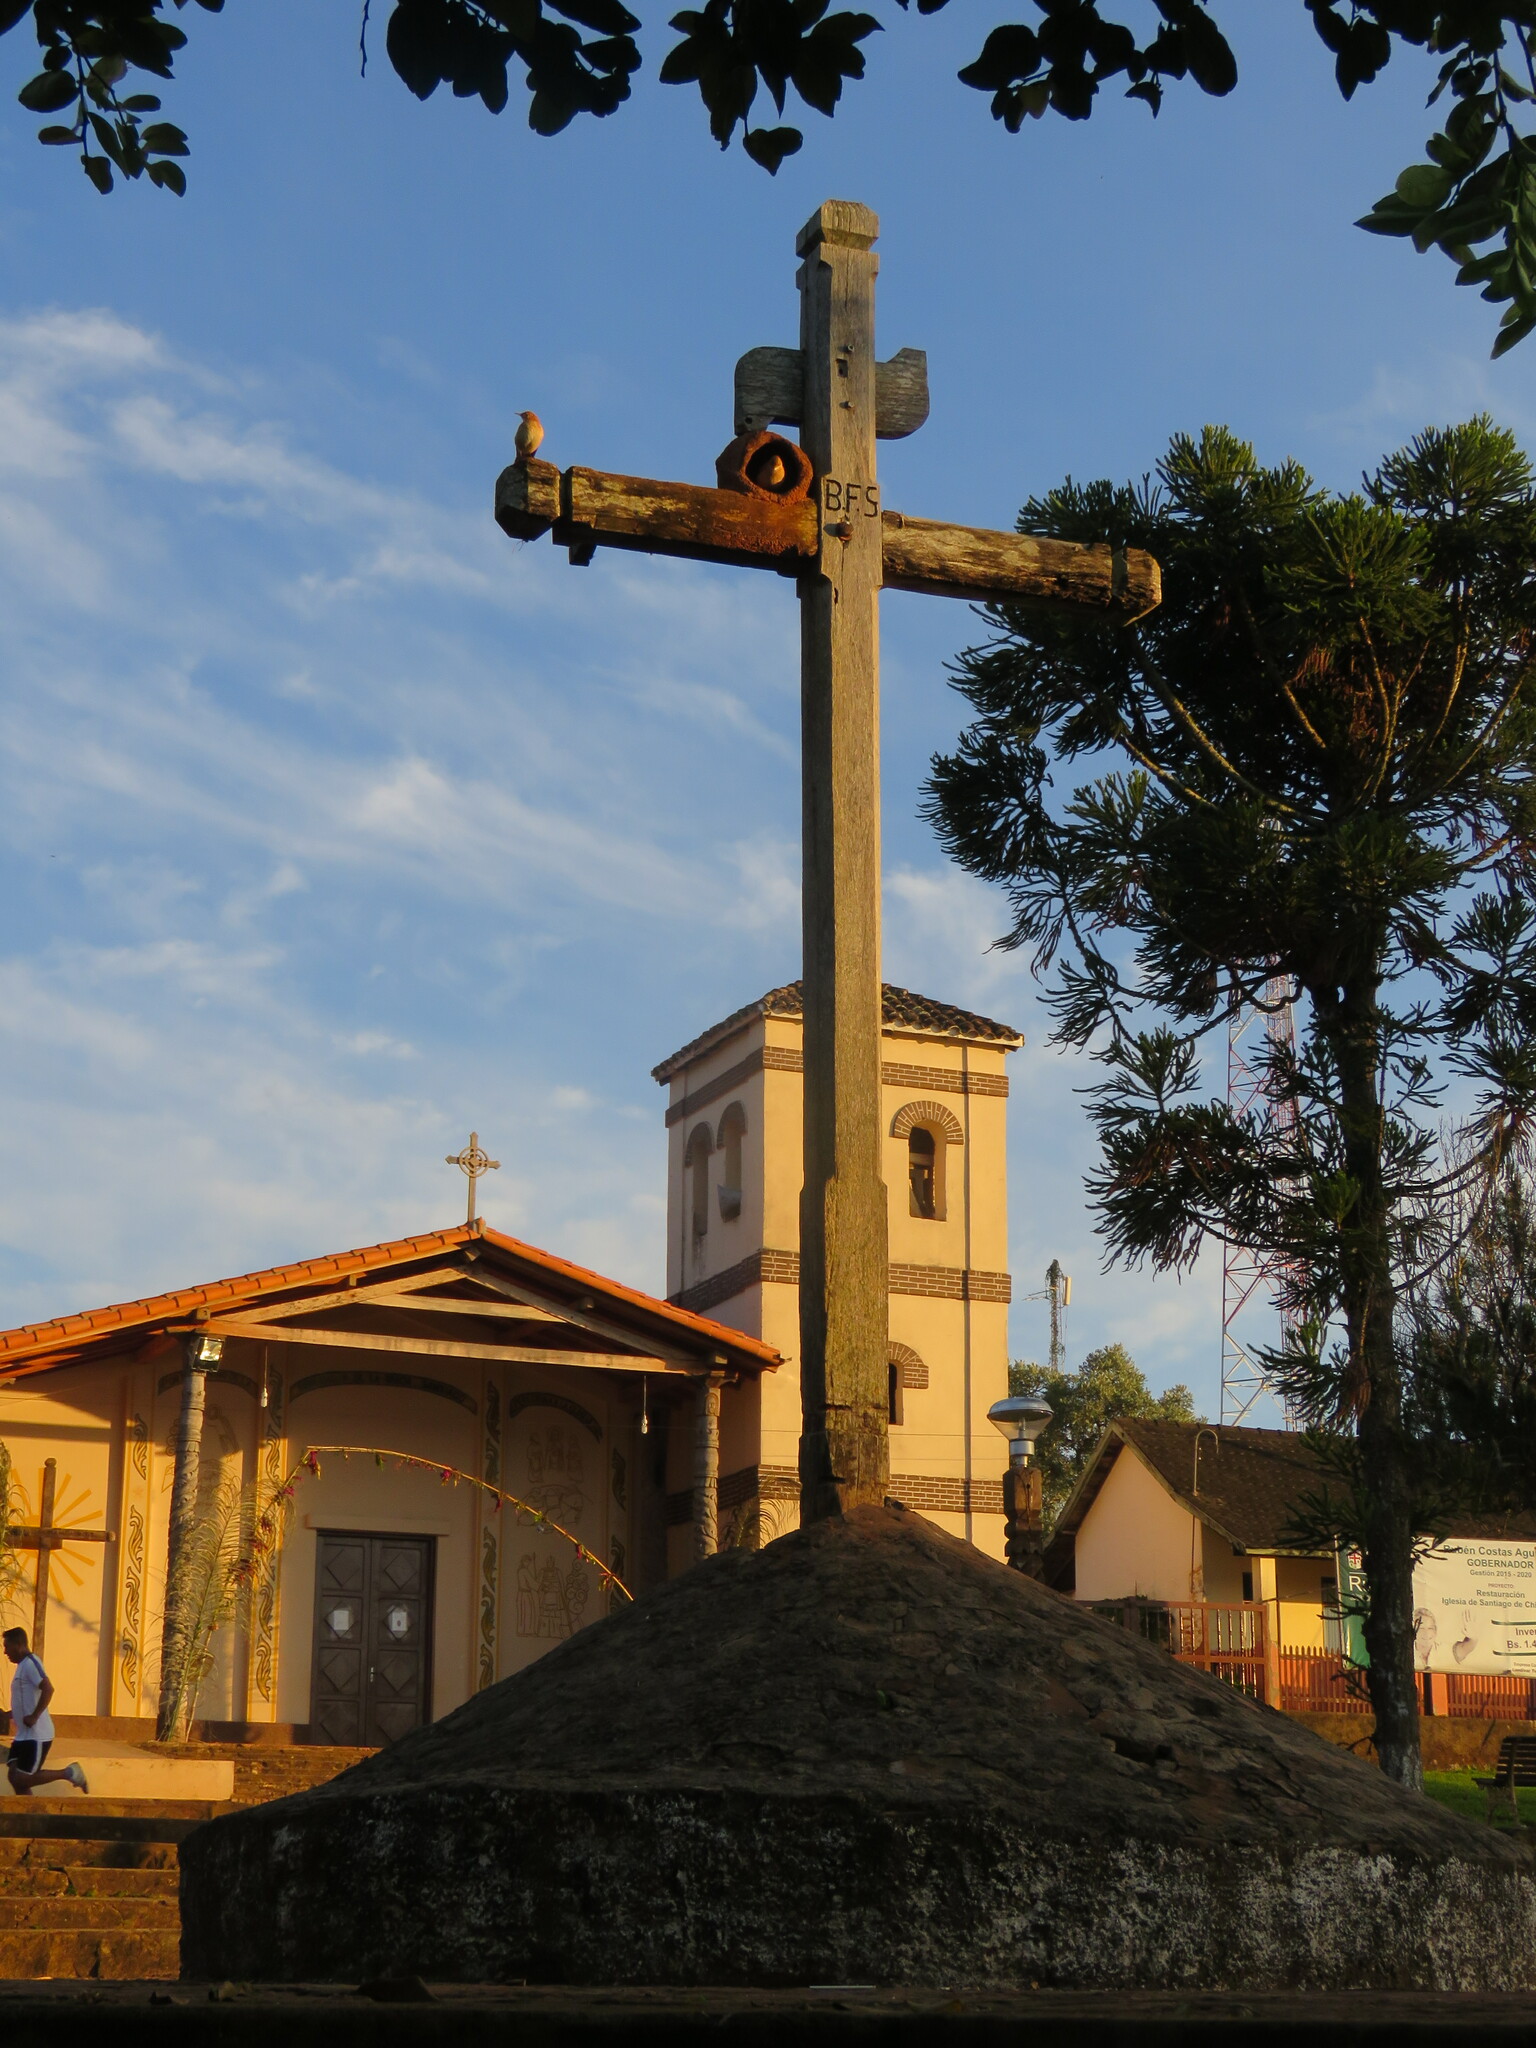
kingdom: Animalia
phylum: Chordata
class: Aves
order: Passeriformes
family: Furnariidae
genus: Furnarius
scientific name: Furnarius rufus
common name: Rufous hornero
